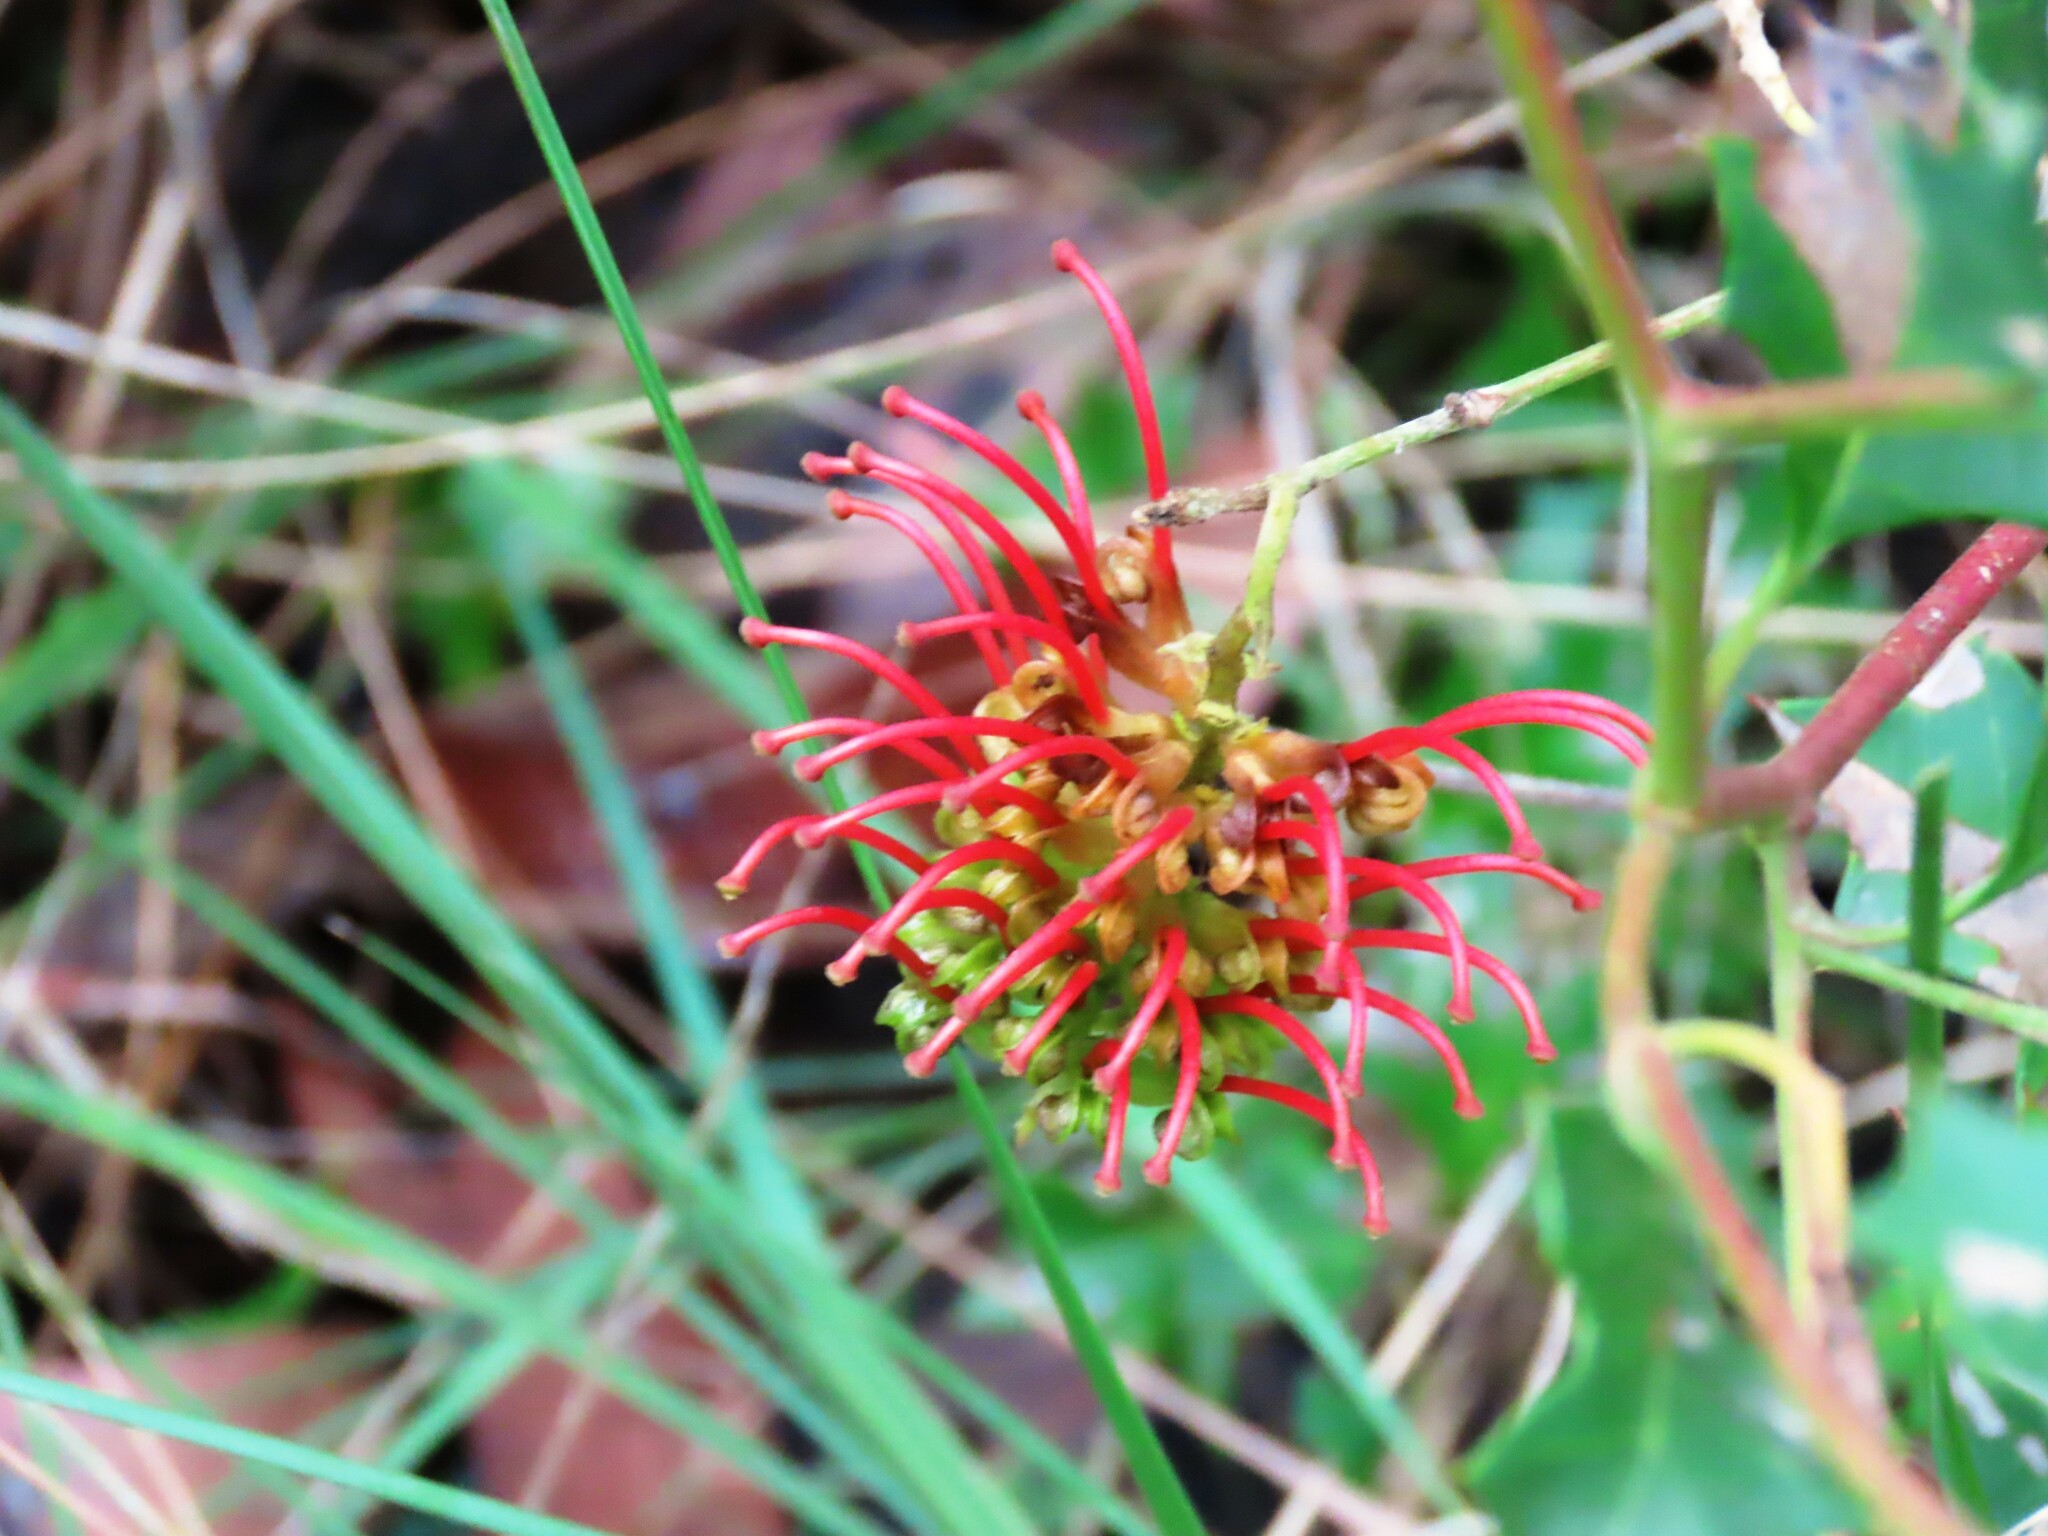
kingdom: Plantae
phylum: Tracheophyta
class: Magnoliopsida
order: Proteales
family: Proteaceae
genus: Grevillea
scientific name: Grevillea steiglitziana
